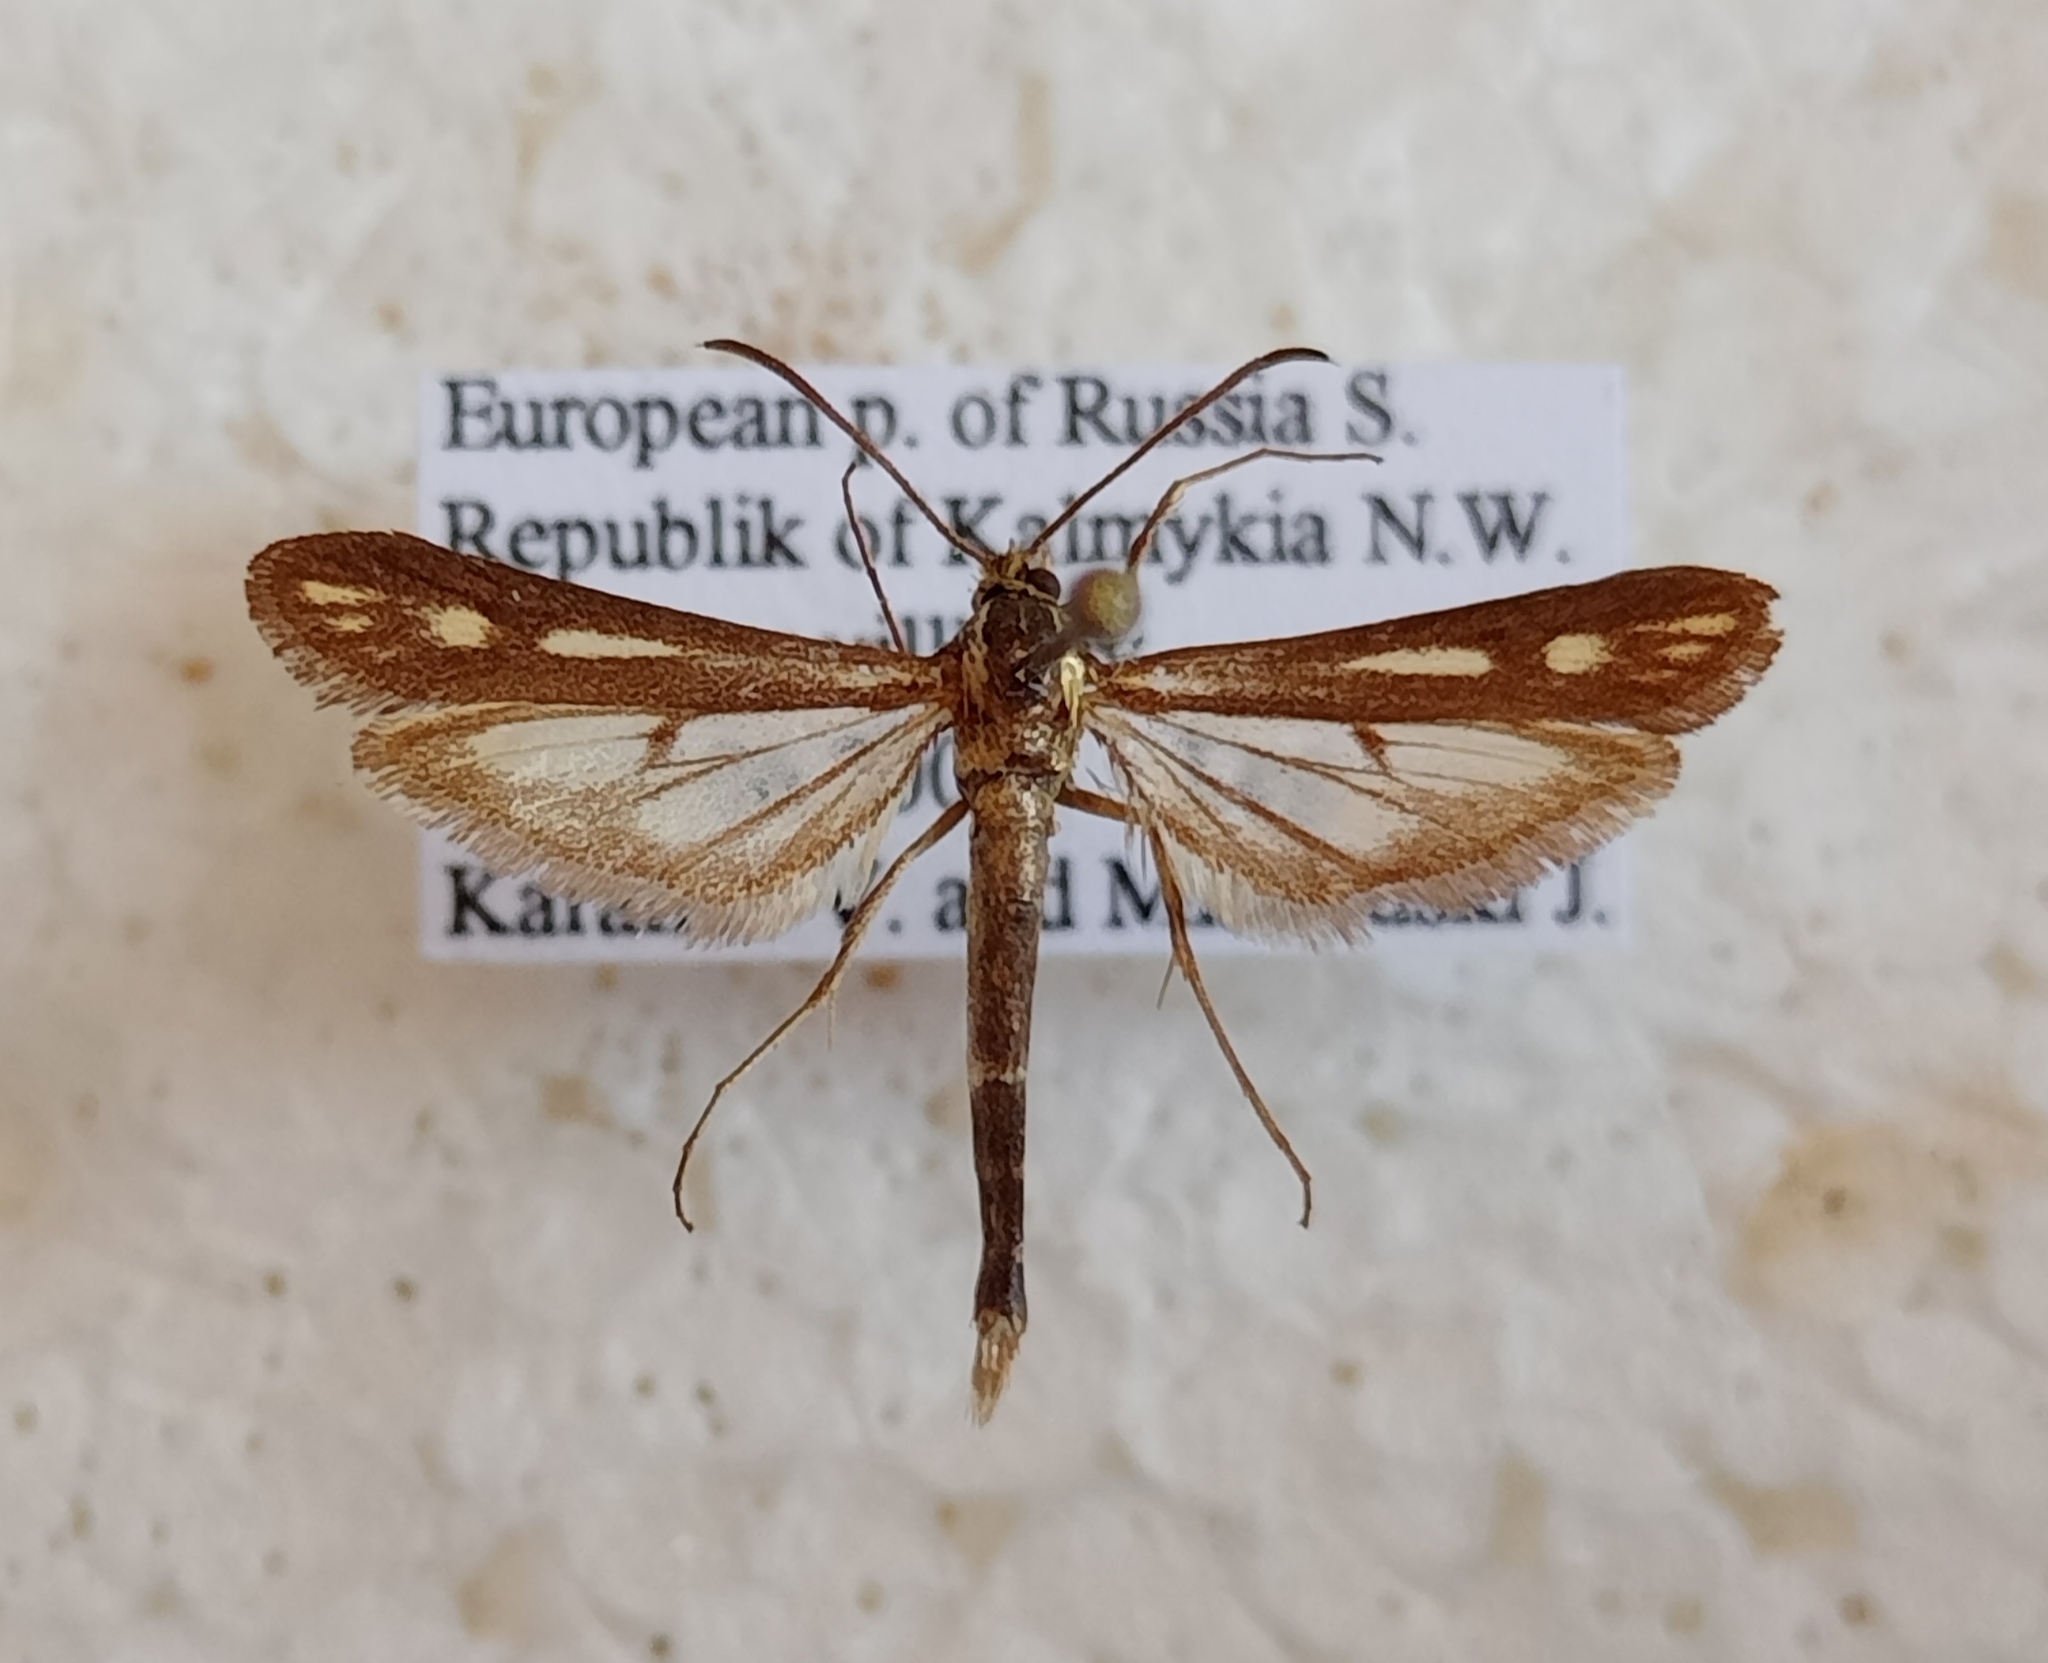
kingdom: Animalia
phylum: Arthropoda
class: Insecta
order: Lepidoptera
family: Sesiidae
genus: Weismanniola
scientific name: Weismanniola agdistiformis
